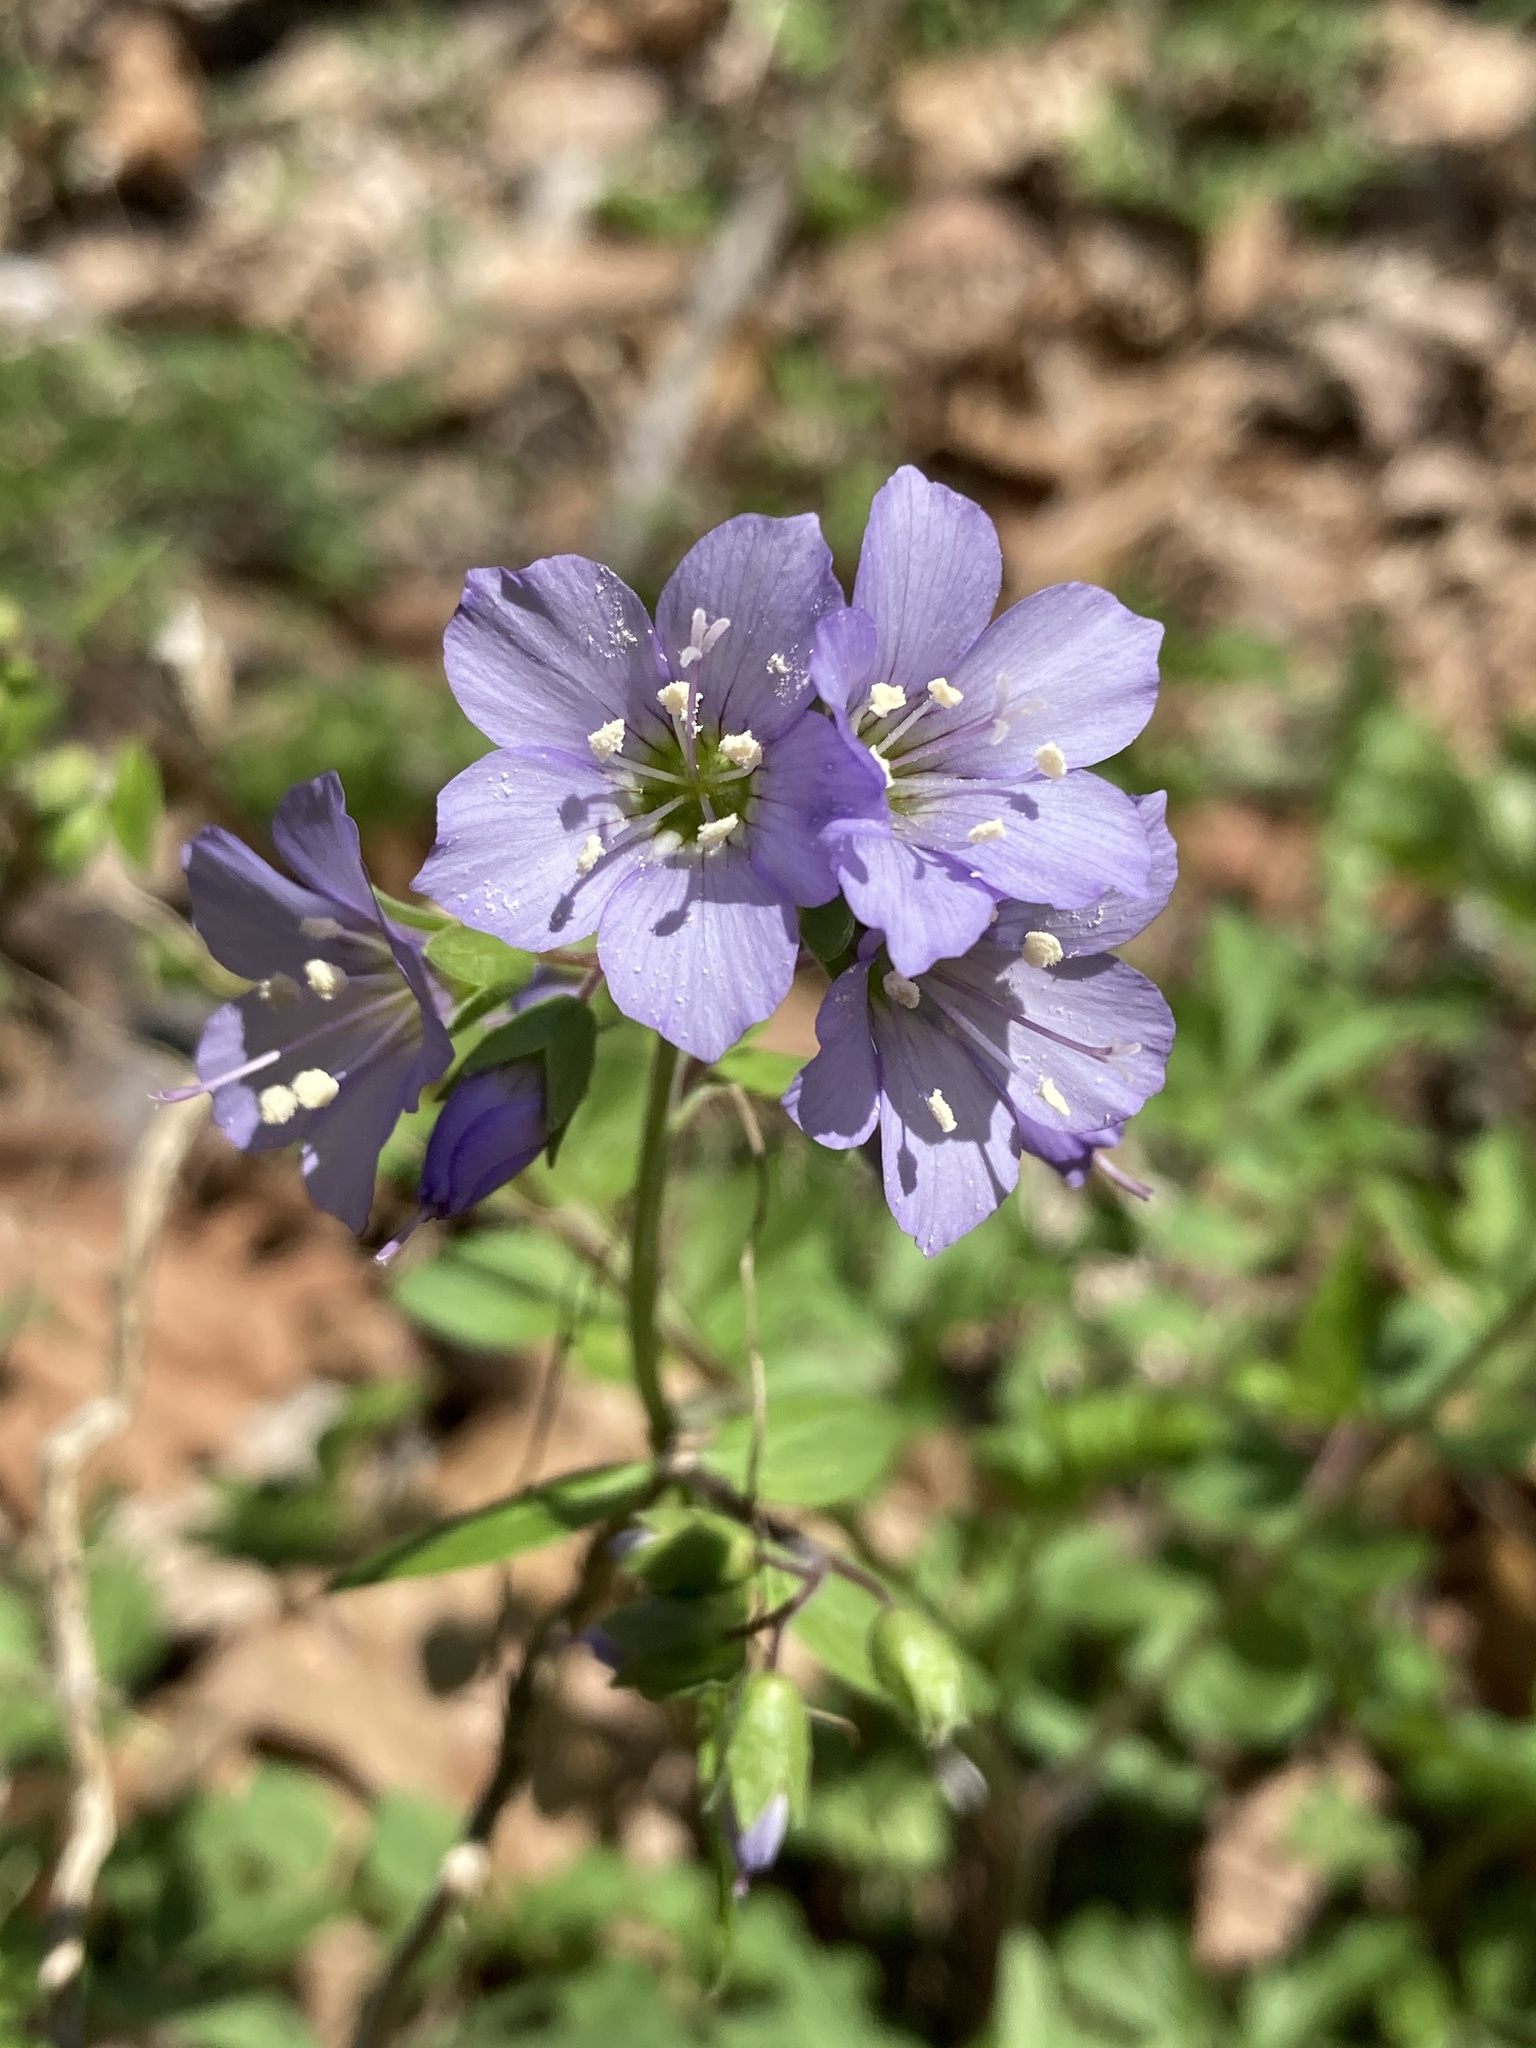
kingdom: Plantae
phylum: Tracheophyta
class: Magnoliopsida
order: Ericales
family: Polemoniaceae
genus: Polemonium
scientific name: Polemonium reptans
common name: Creeping jacob's-ladder
